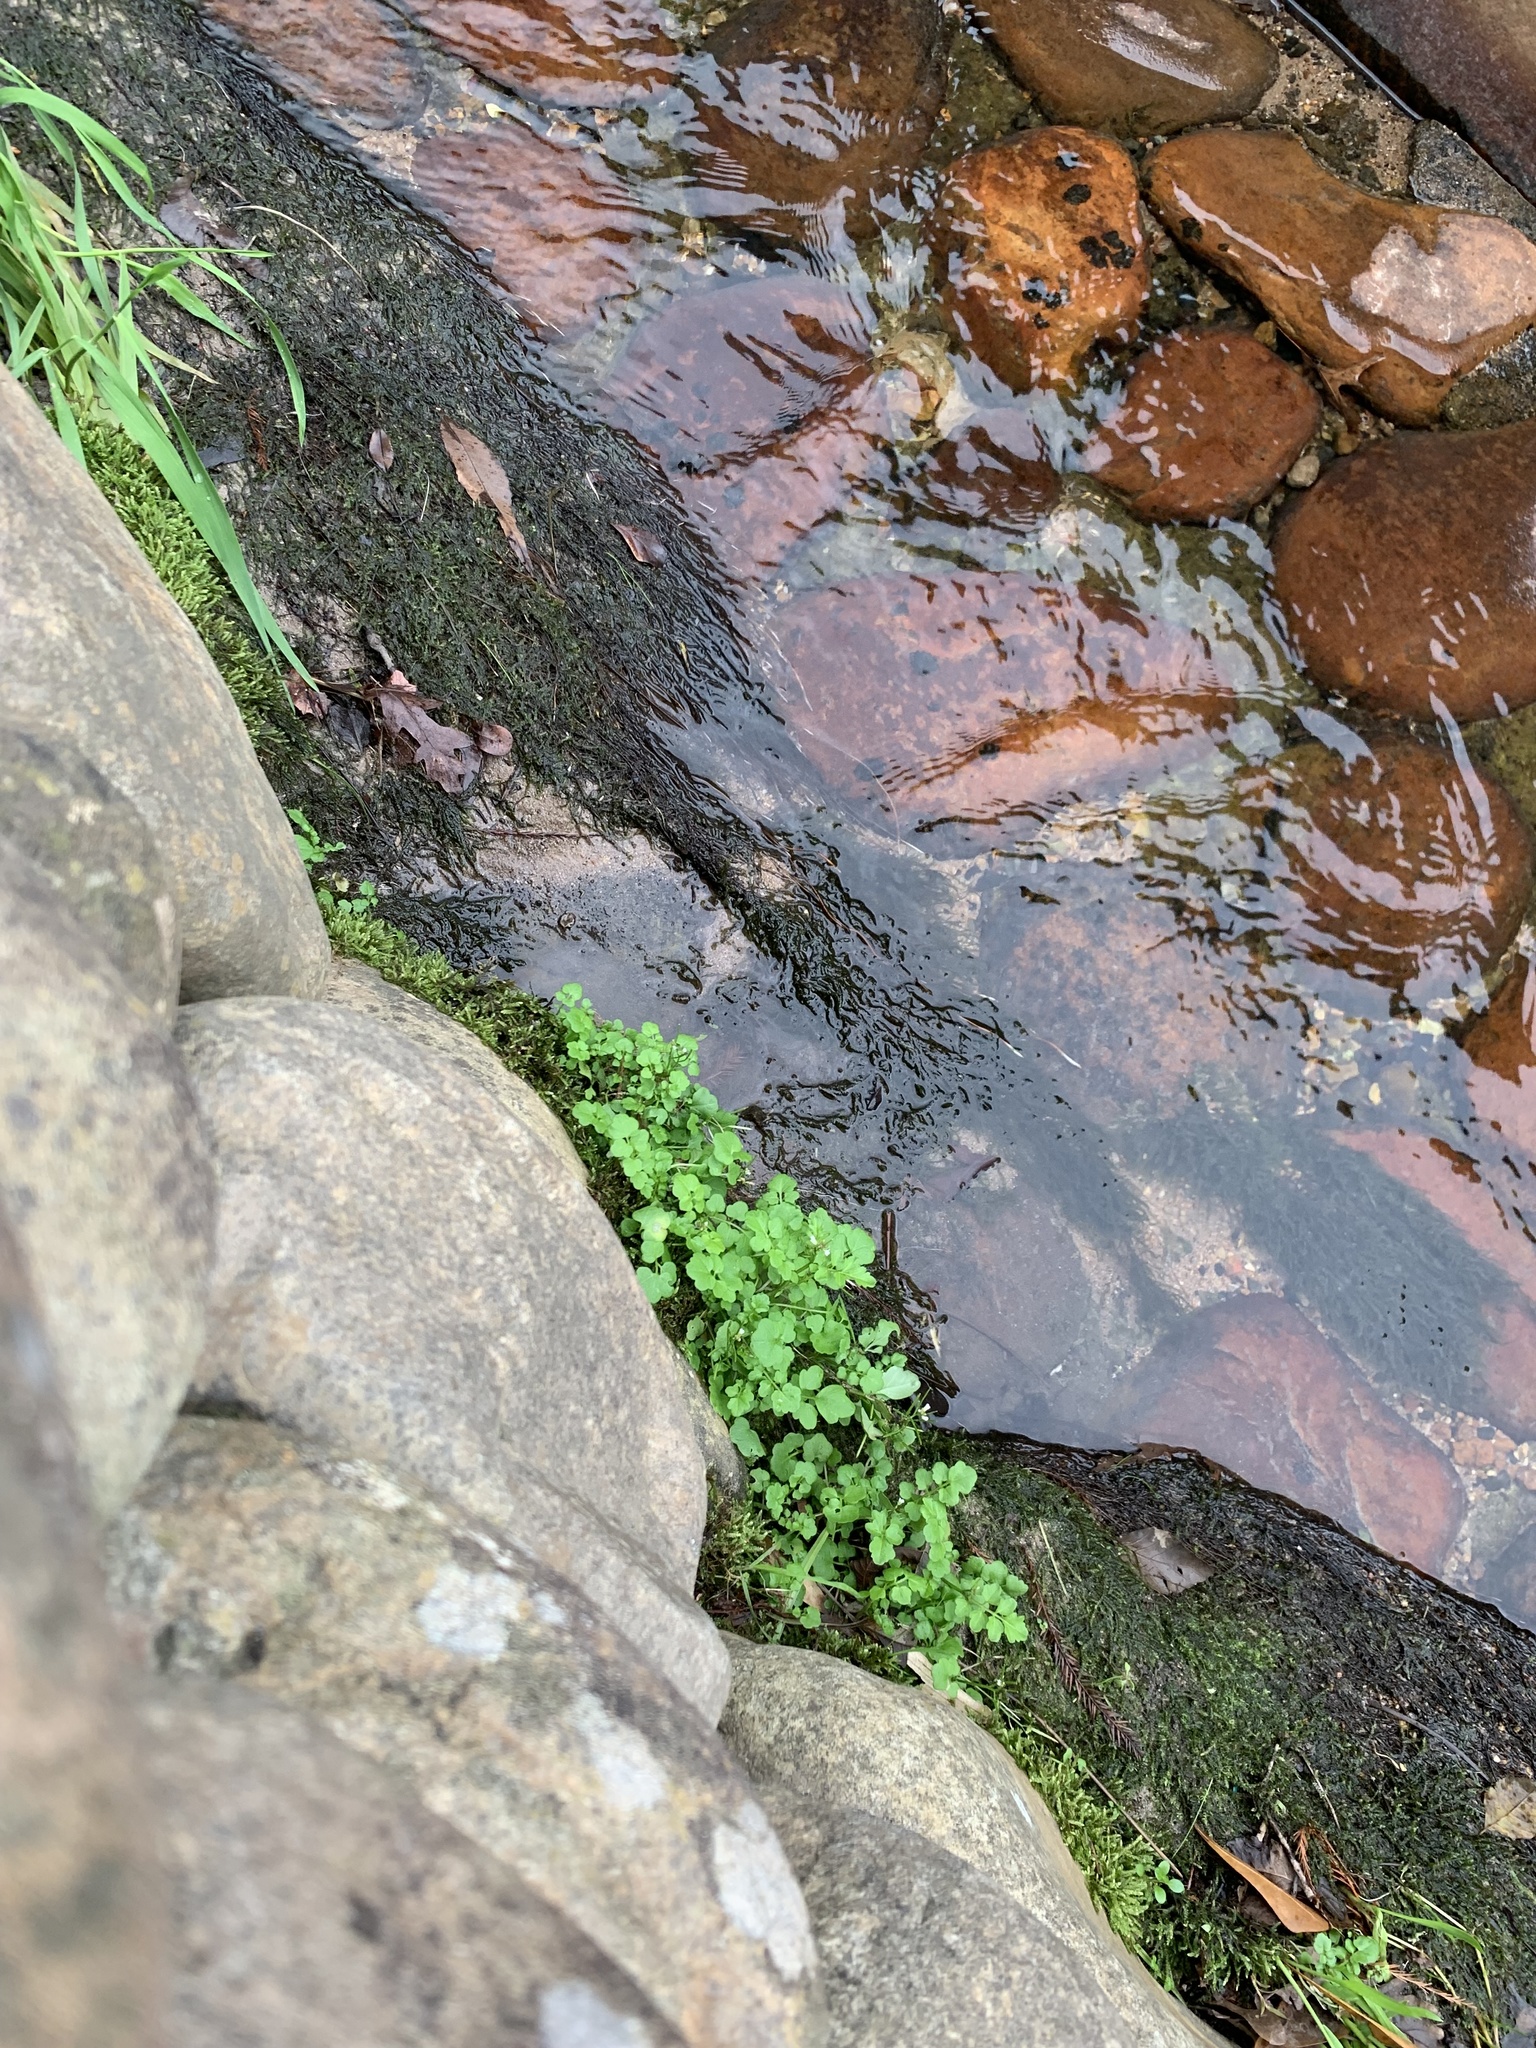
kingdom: Plantae
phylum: Tracheophyta
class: Magnoliopsida
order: Brassicales
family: Brassicaceae
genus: Cardamine
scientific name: Cardamine occulta
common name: Asian wavy bittercress
